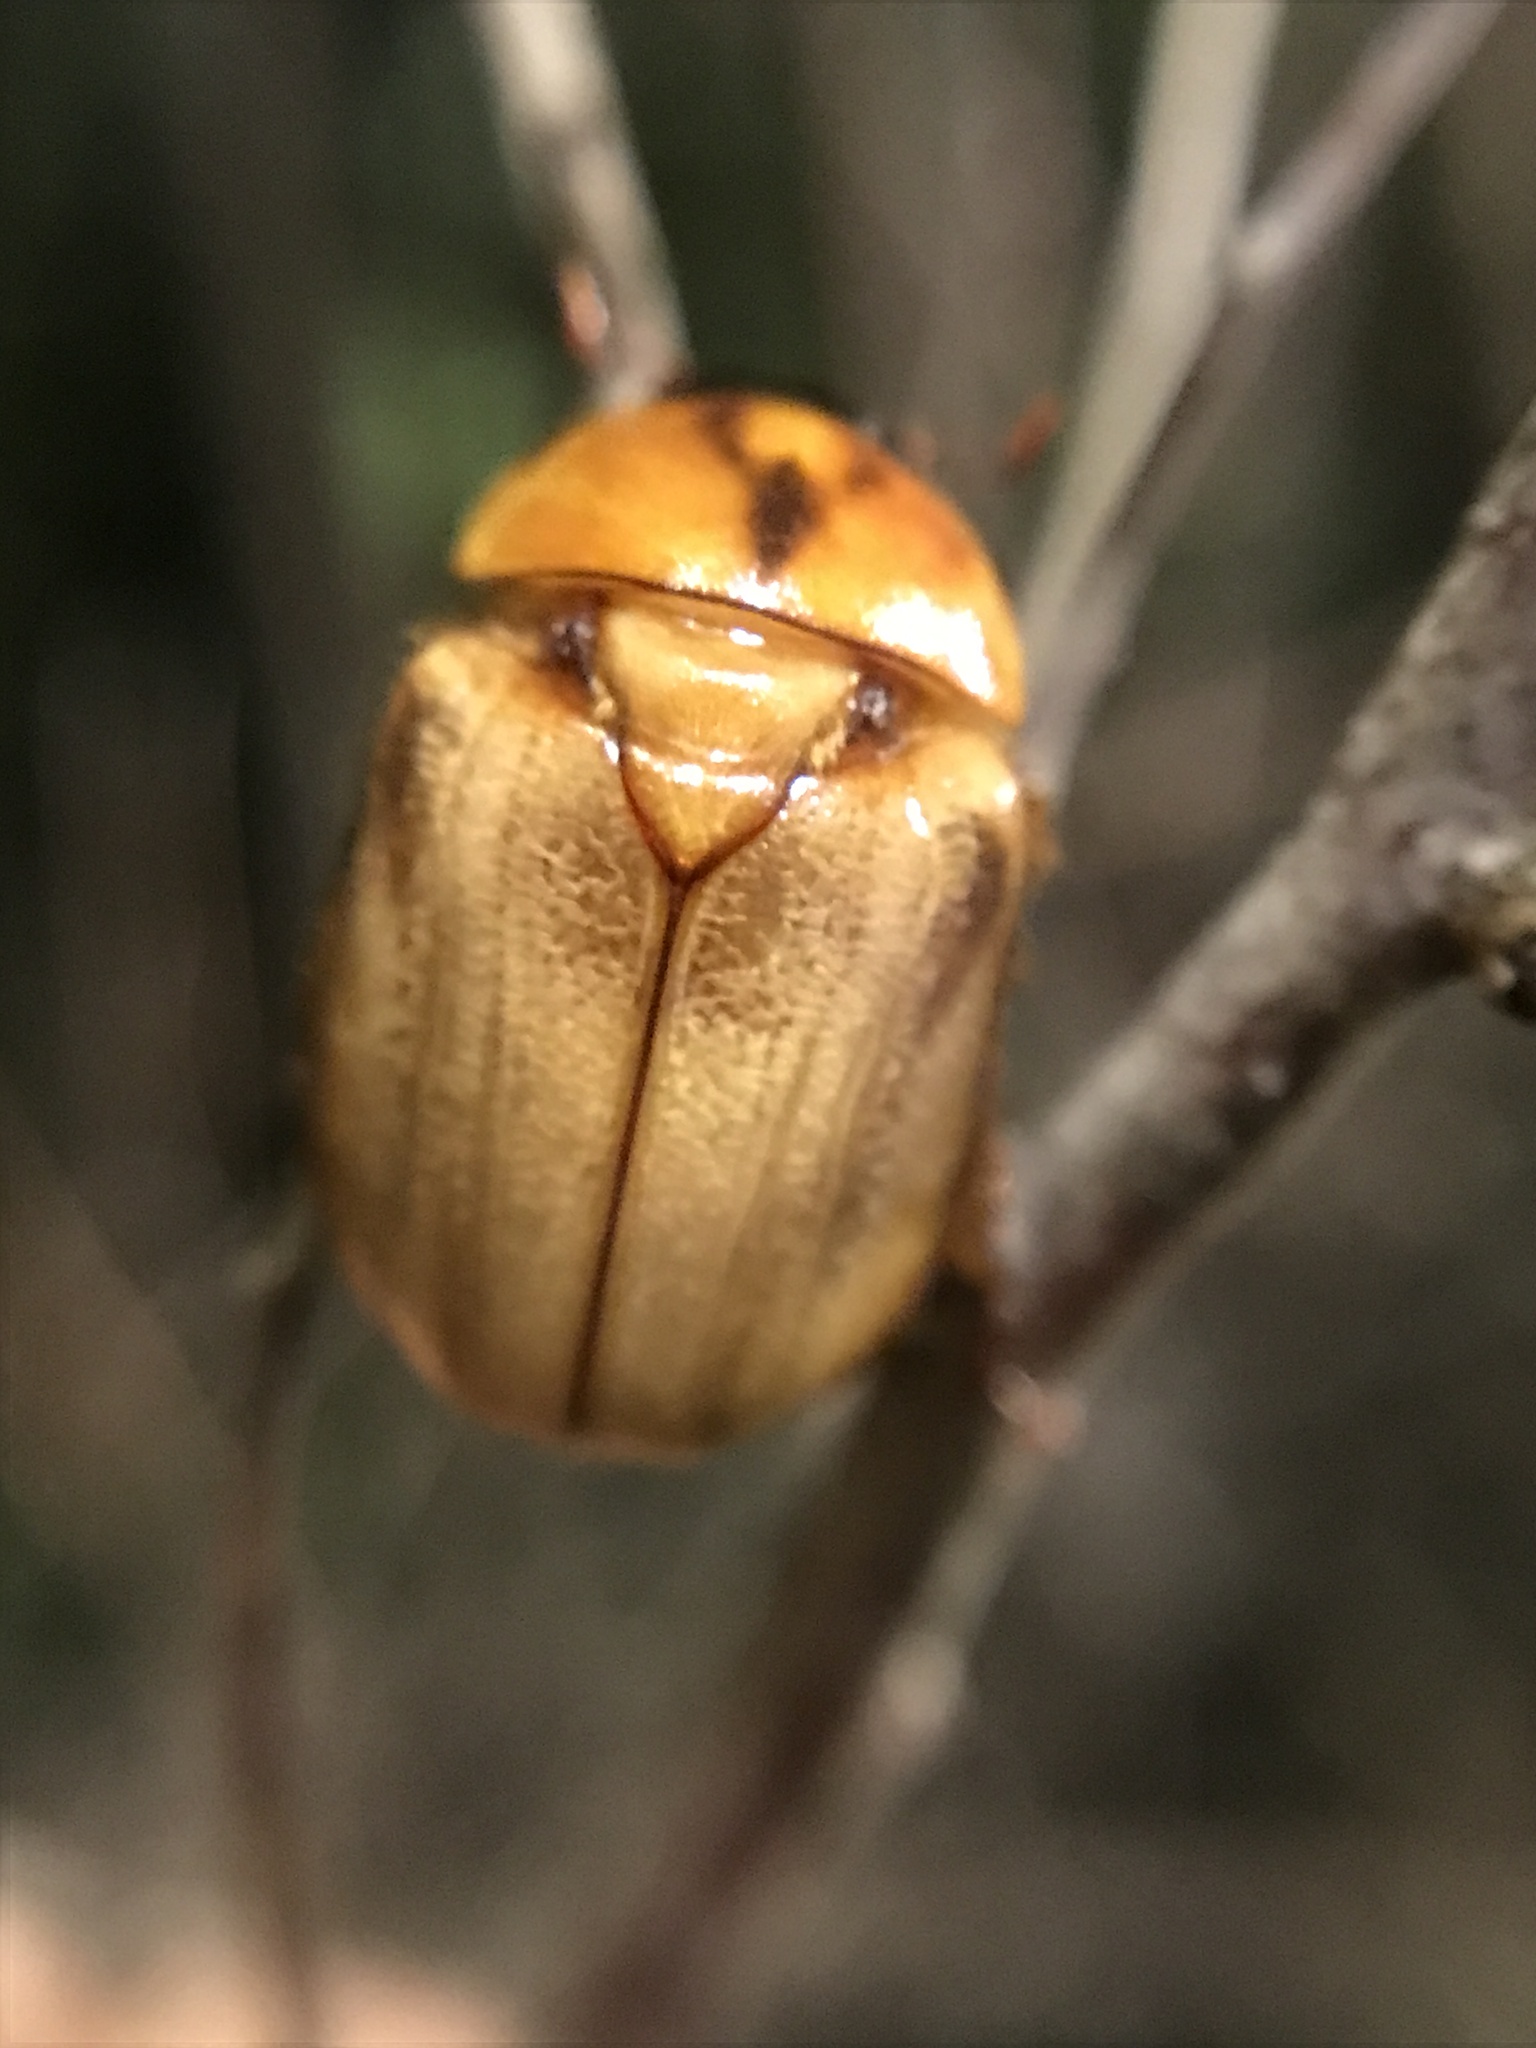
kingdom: Animalia
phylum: Arthropoda
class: Insecta
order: Coleoptera
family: Scarabaeidae
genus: Cyclocephala
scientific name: Cyclocephala signaticollis
